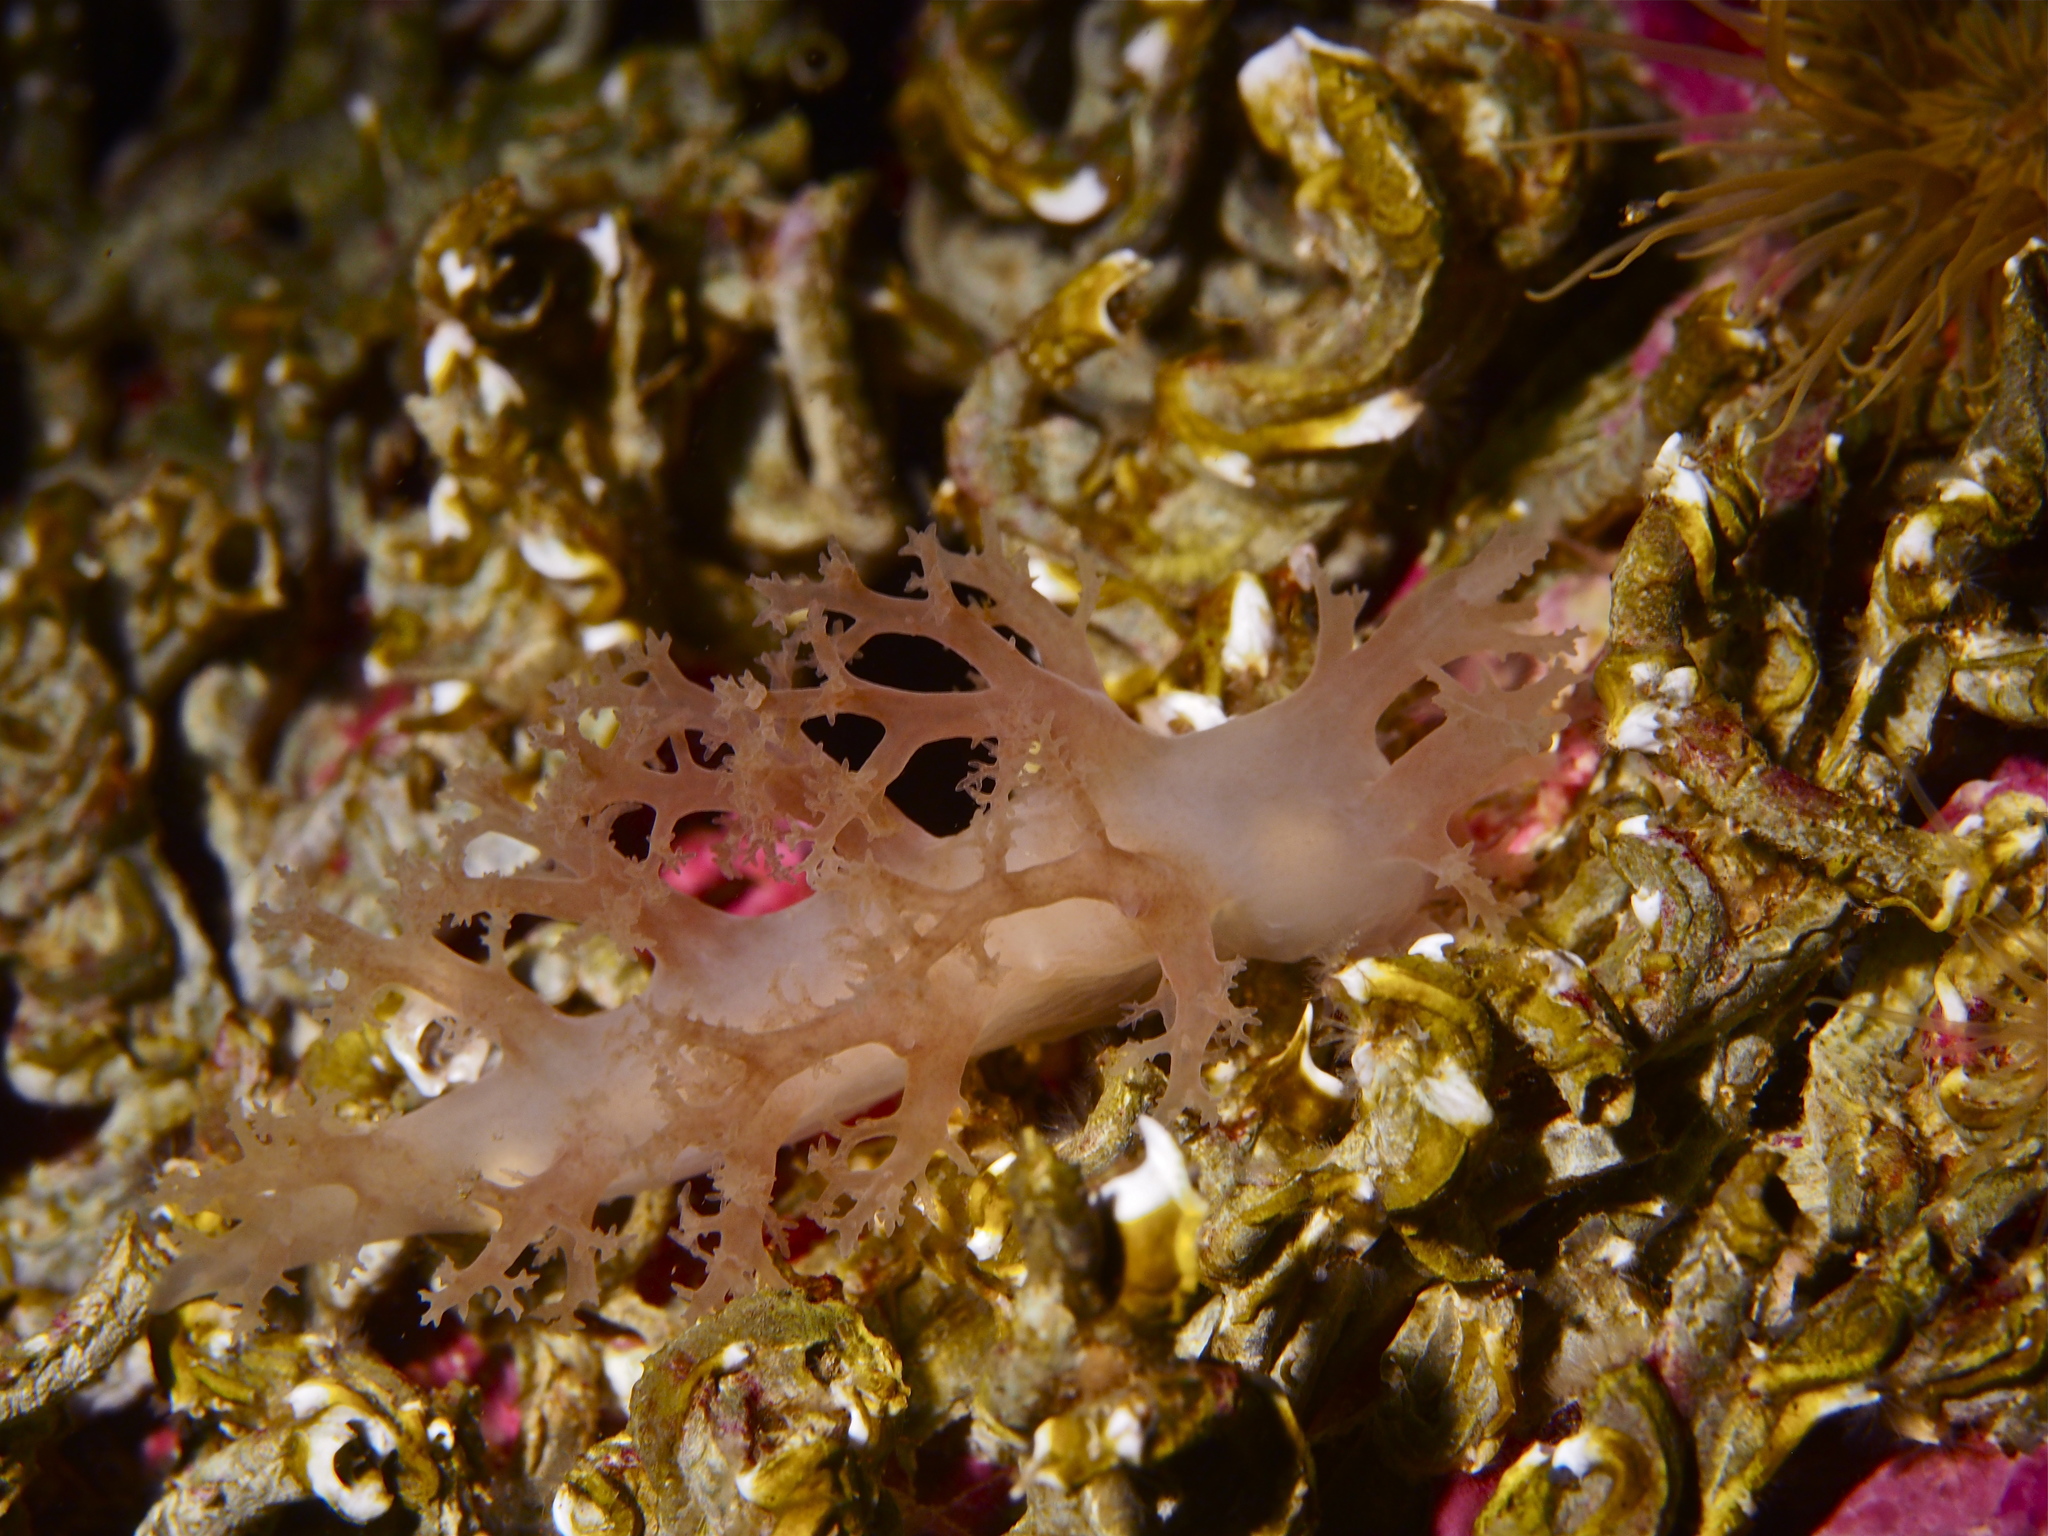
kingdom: Animalia
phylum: Mollusca
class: Gastropoda
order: Nudibranchia
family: Dendronotidae
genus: Dendronotus
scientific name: Dendronotus lacteus
